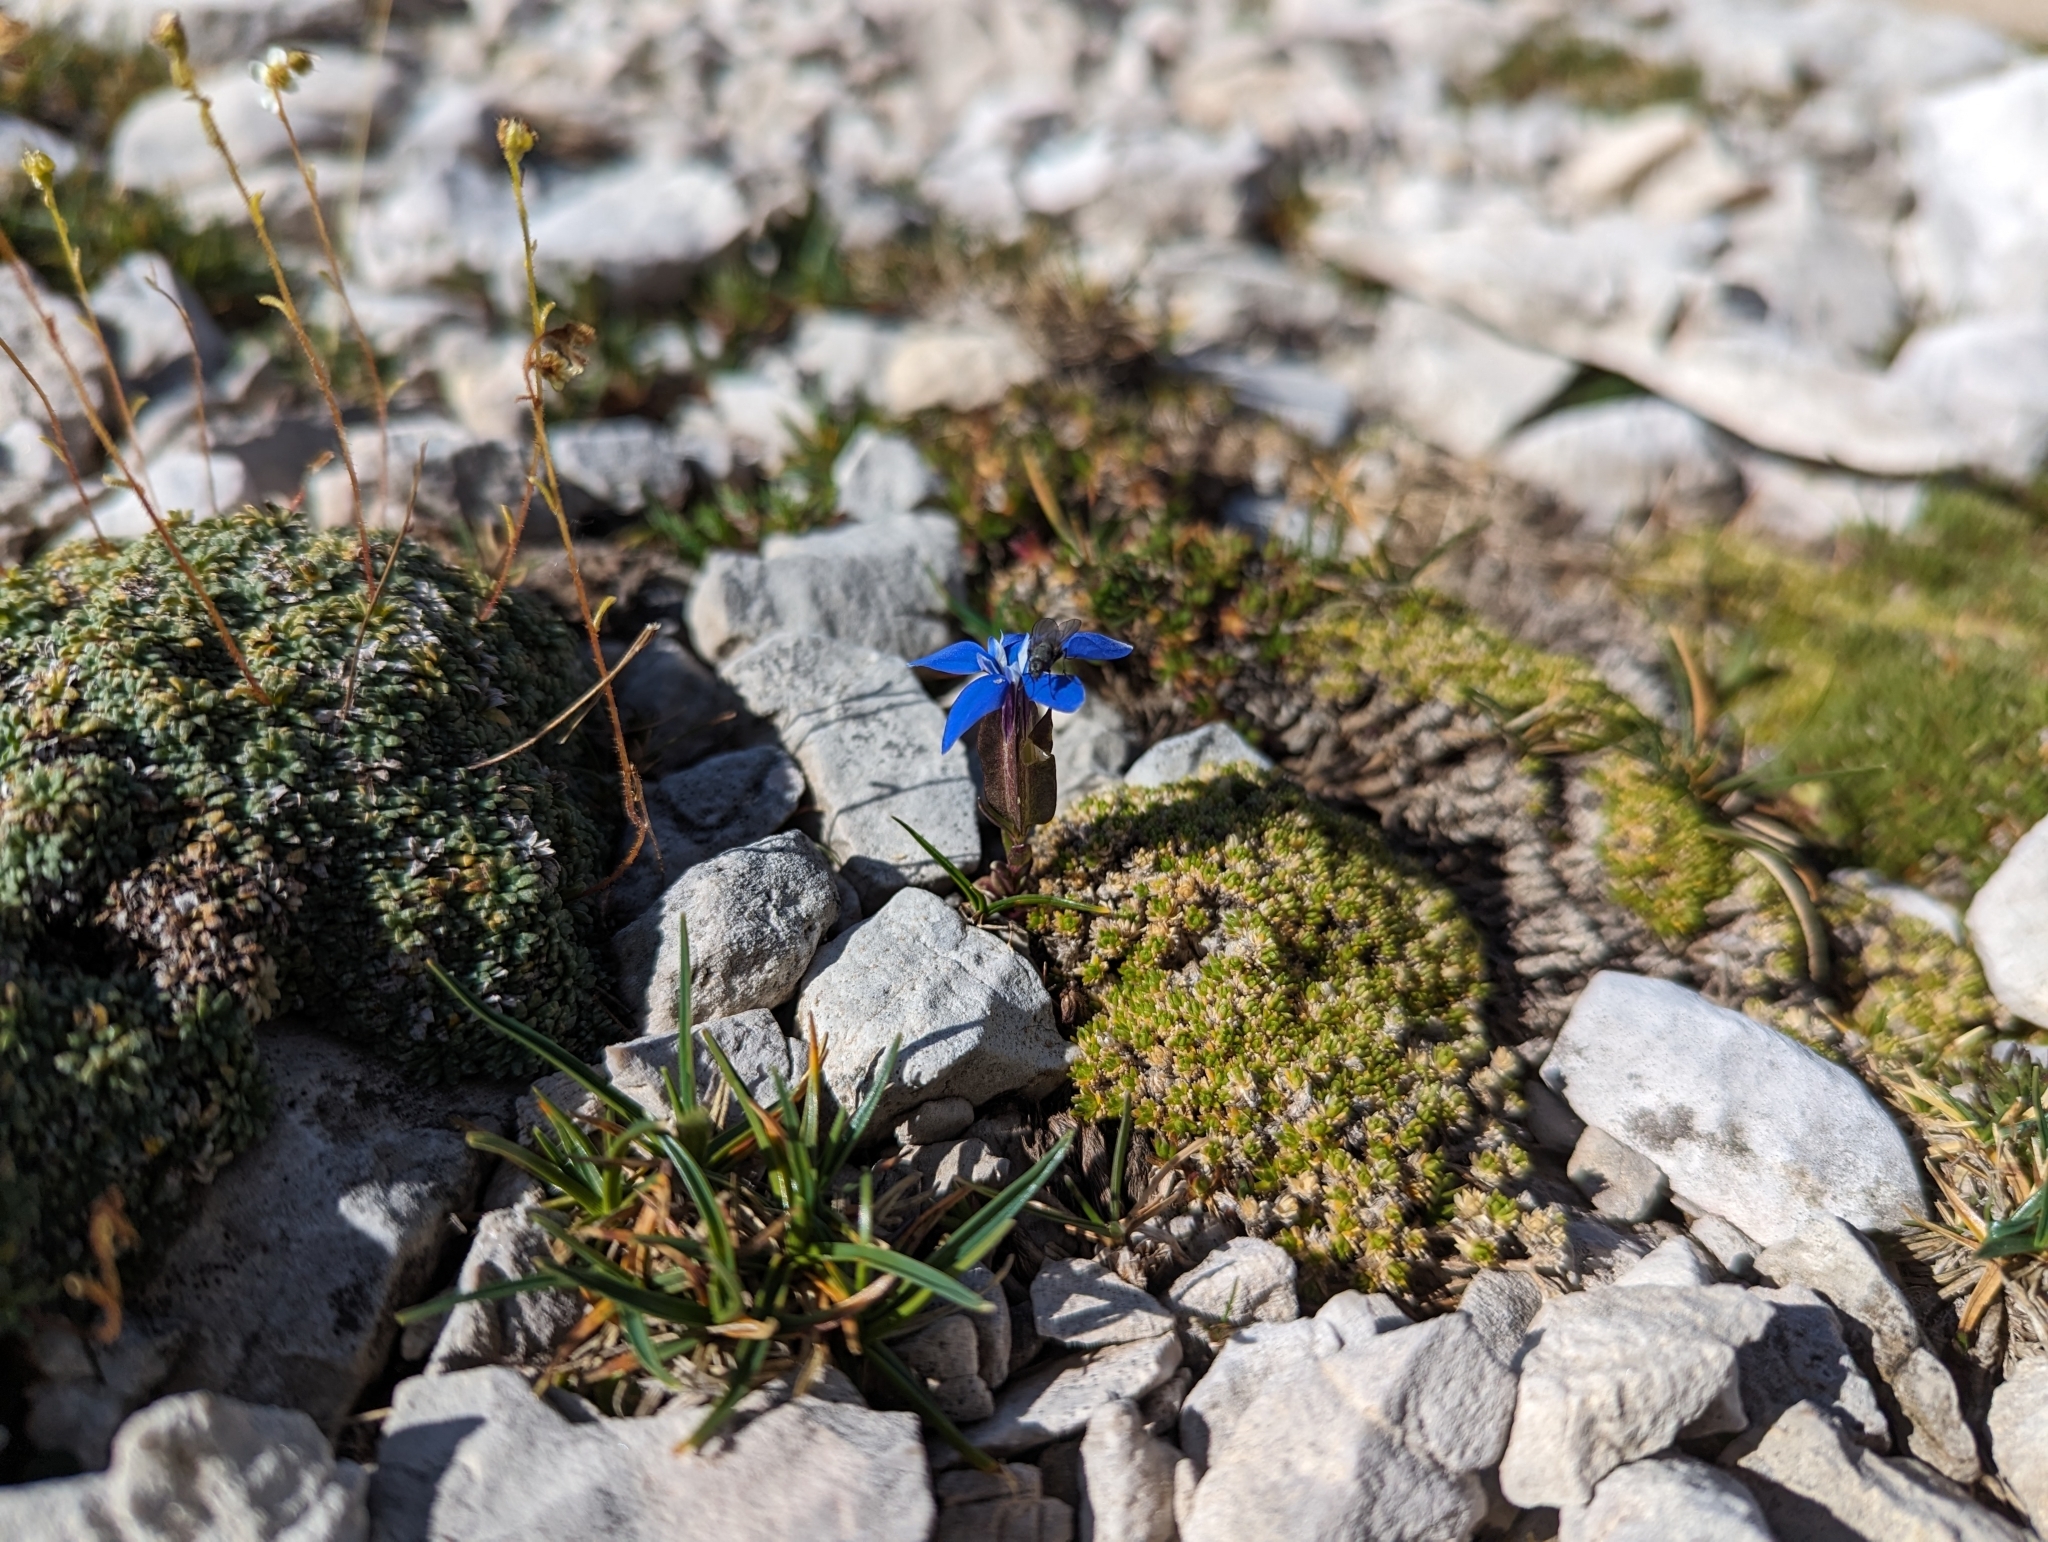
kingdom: Plantae
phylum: Tracheophyta
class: Magnoliopsida
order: Gentianales
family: Gentianaceae
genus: Gentiana
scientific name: Gentiana utriculosa
